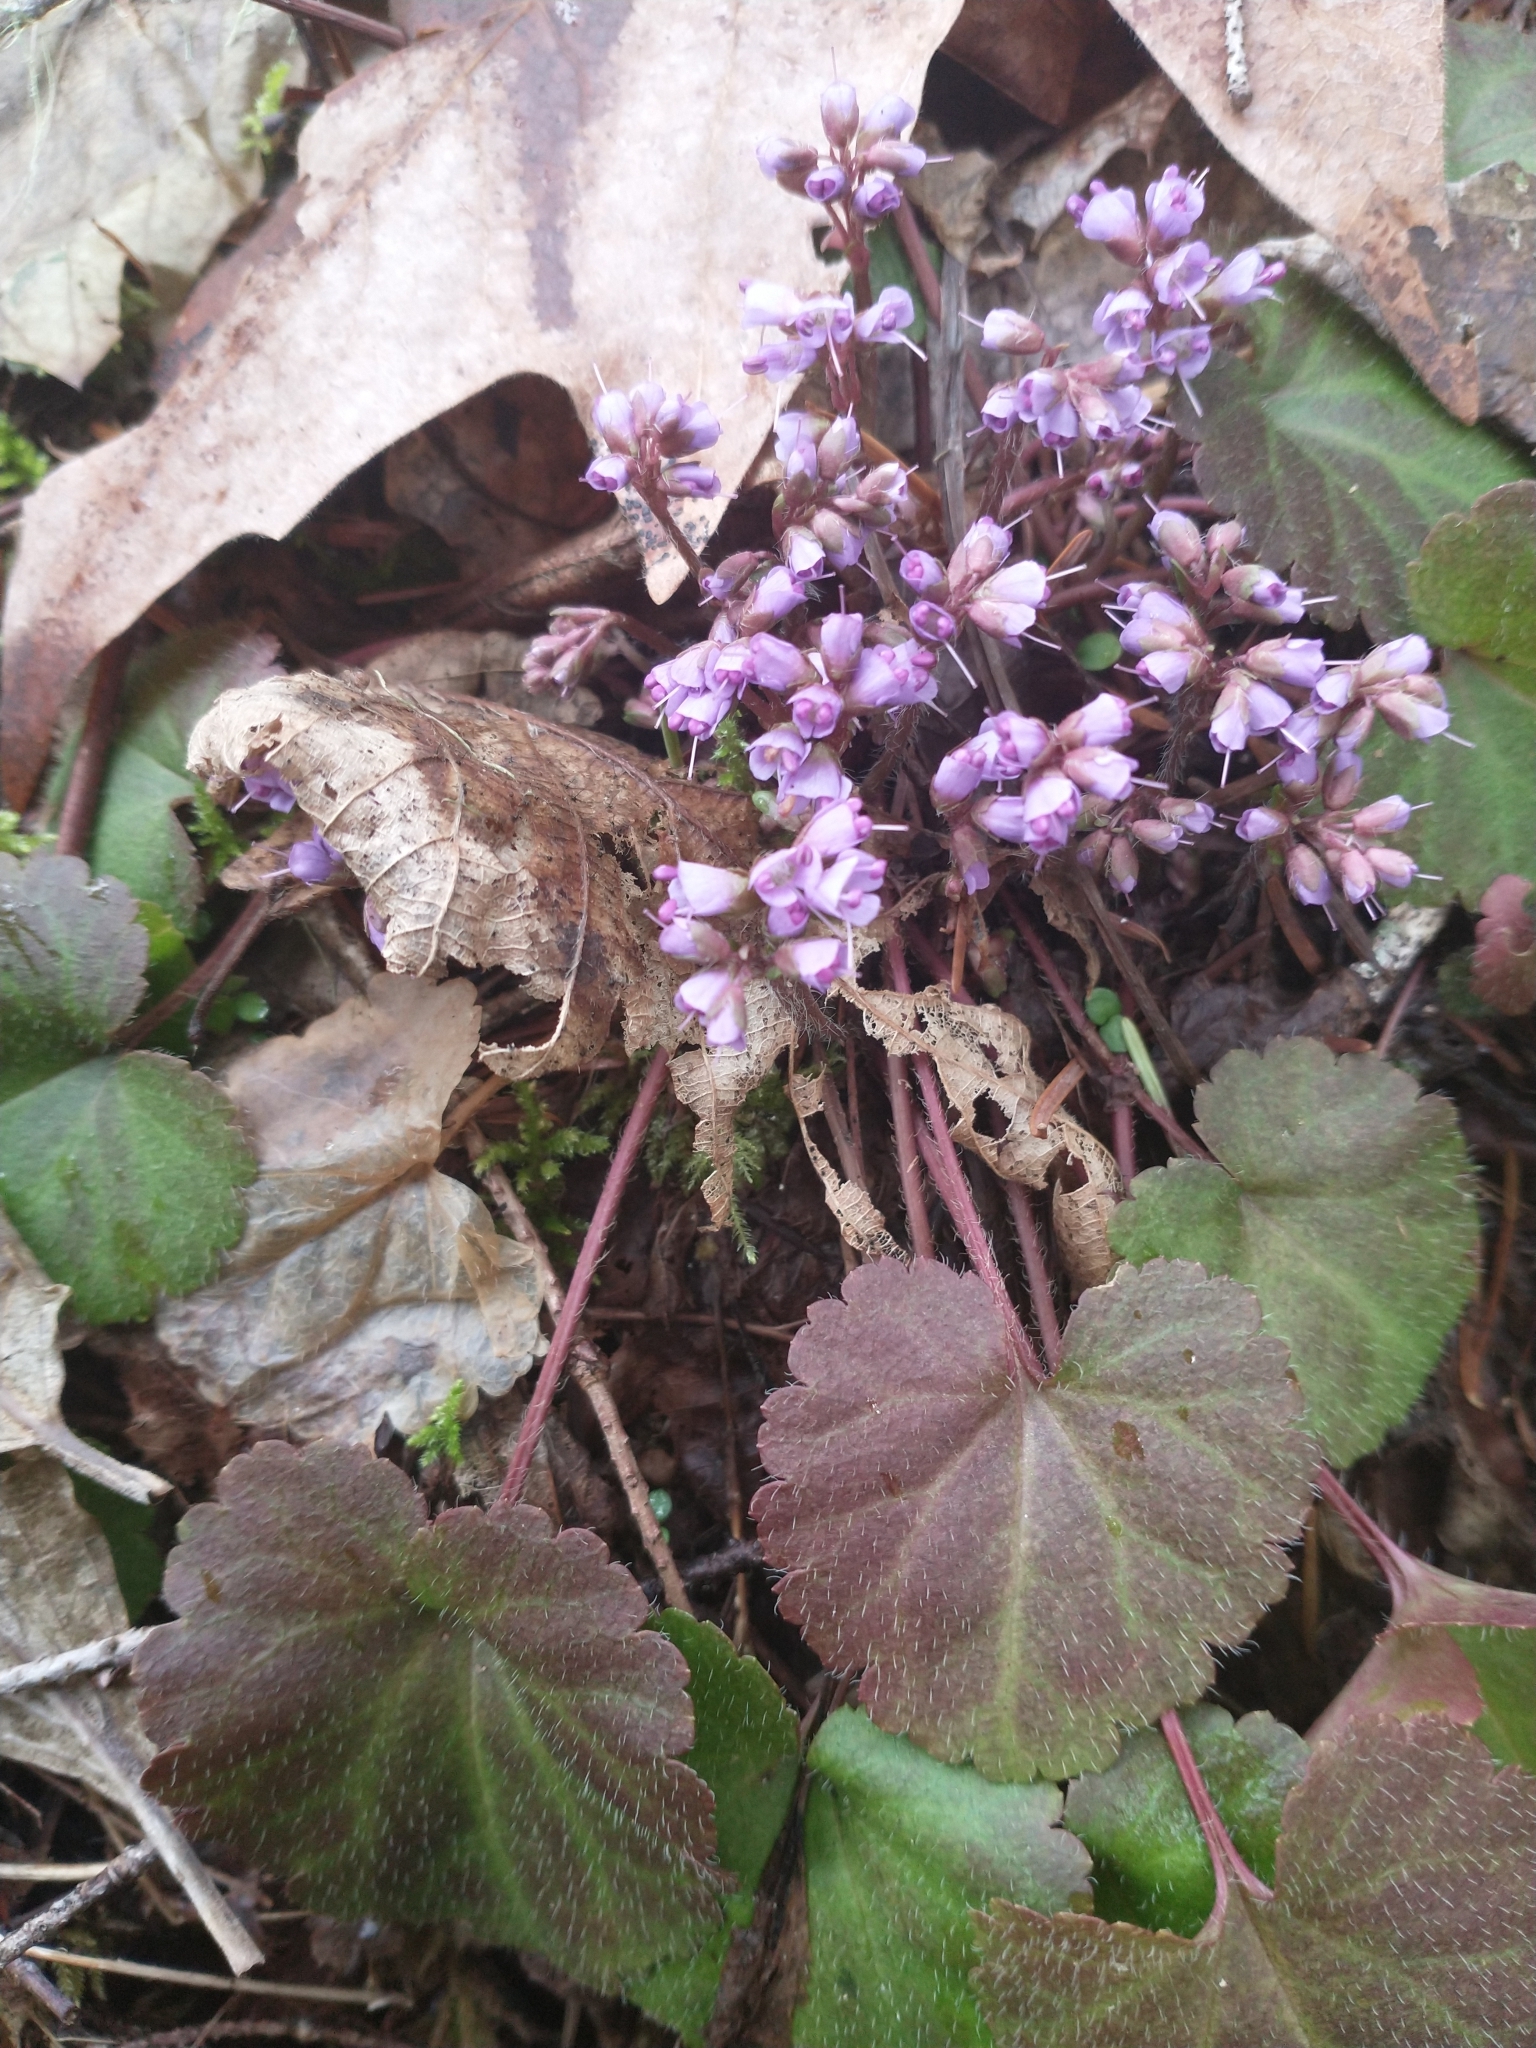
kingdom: Plantae
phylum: Tracheophyta
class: Magnoliopsida
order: Lamiales
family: Plantaginaceae
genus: Synthyris
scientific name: Synthyris reniformis
